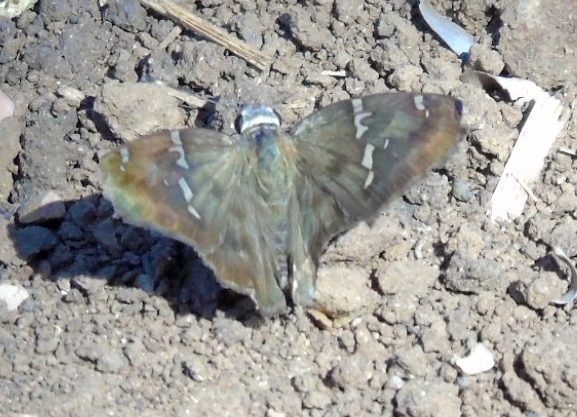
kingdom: Animalia
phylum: Arthropoda
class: Insecta
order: Lepidoptera
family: Hesperiidae
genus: Autochton
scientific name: Autochton potrillo
